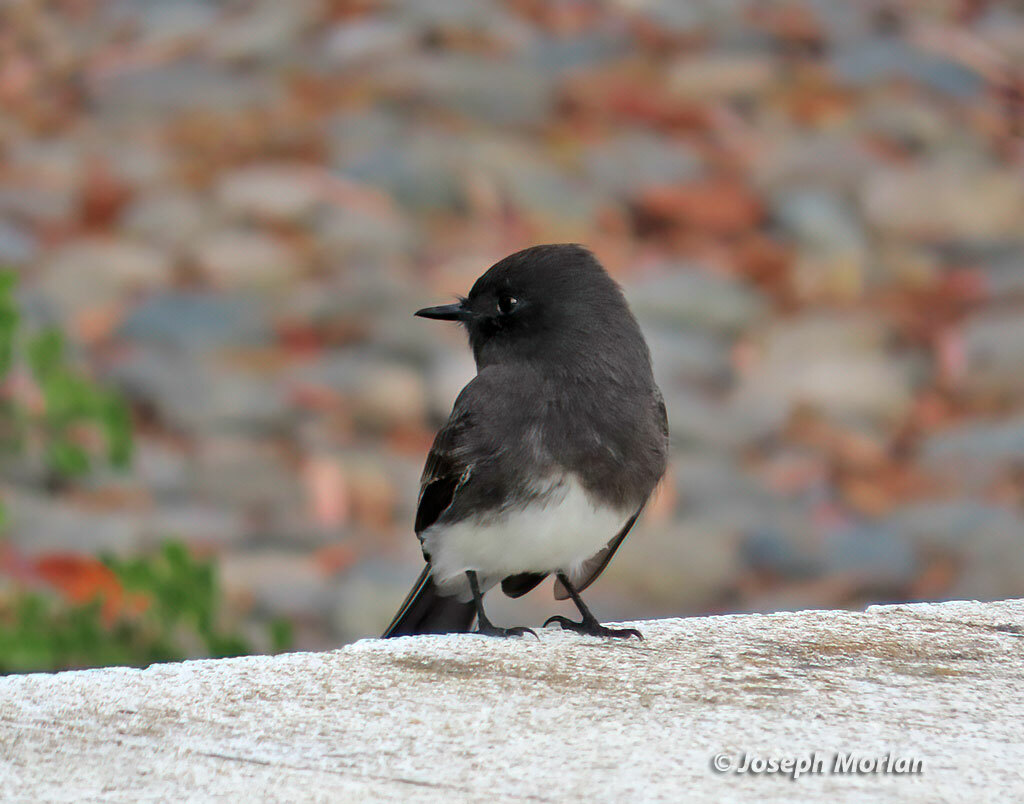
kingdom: Animalia
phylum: Chordata
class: Aves
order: Passeriformes
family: Tyrannidae
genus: Sayornis
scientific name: Sayornis nigricans
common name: Black phoebe
